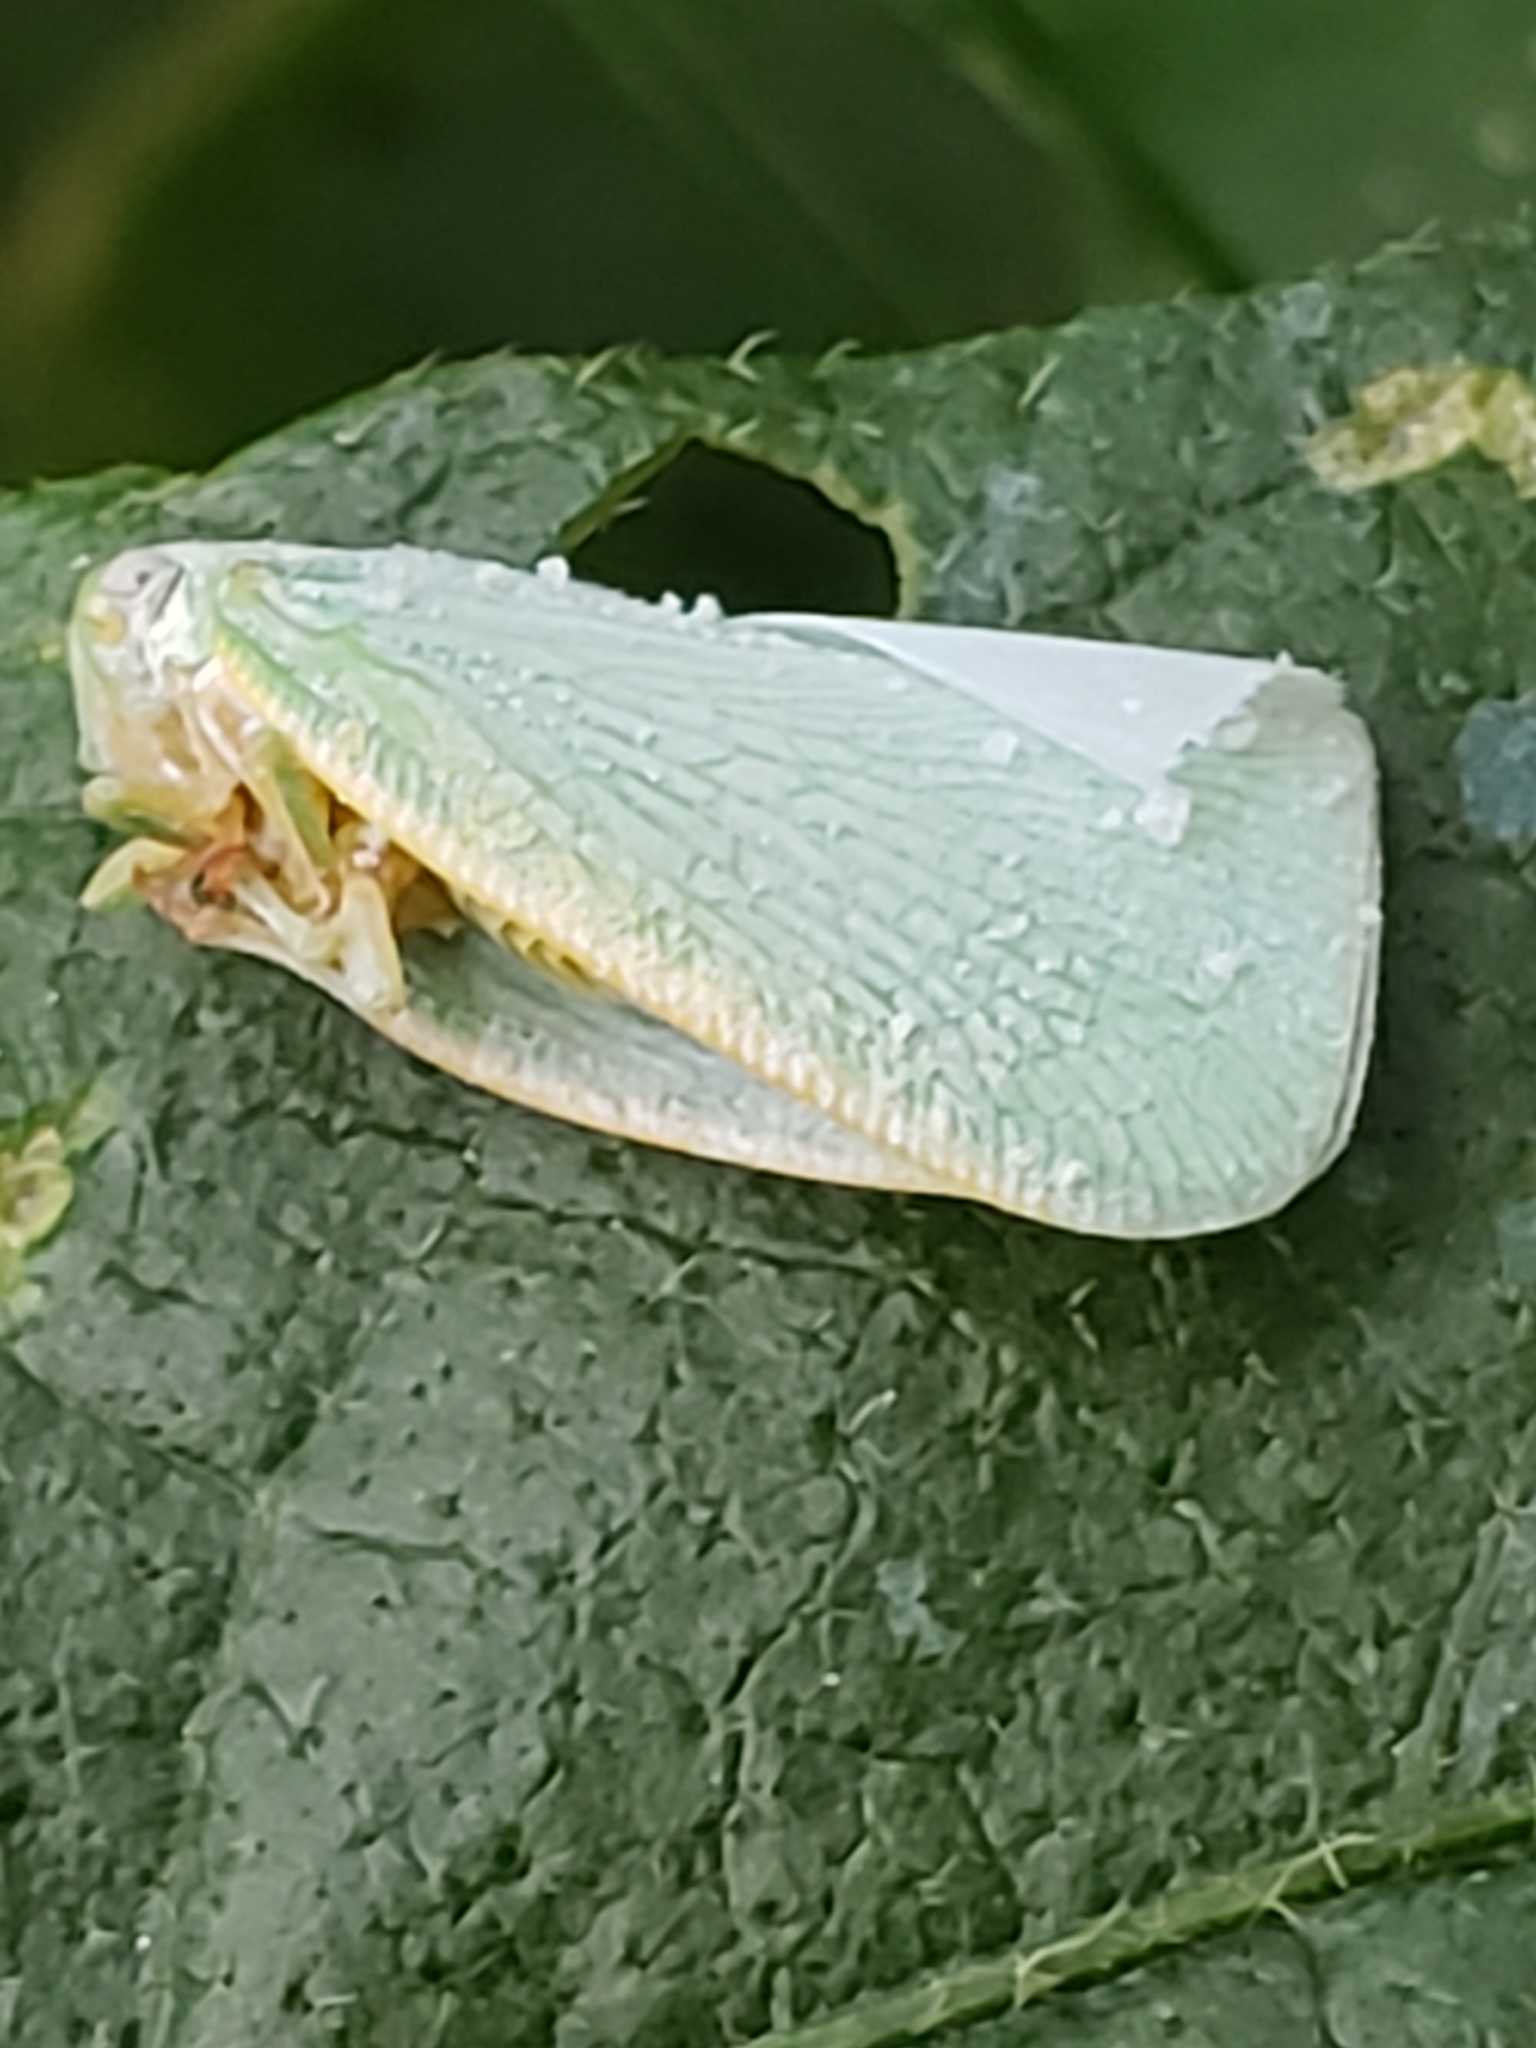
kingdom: Animalia
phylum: Arthropoda
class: Insecta
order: Hemiptera
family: Flatidae
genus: Flatormenis
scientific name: Flatormenis proxima
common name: Northern flatid planthopper
